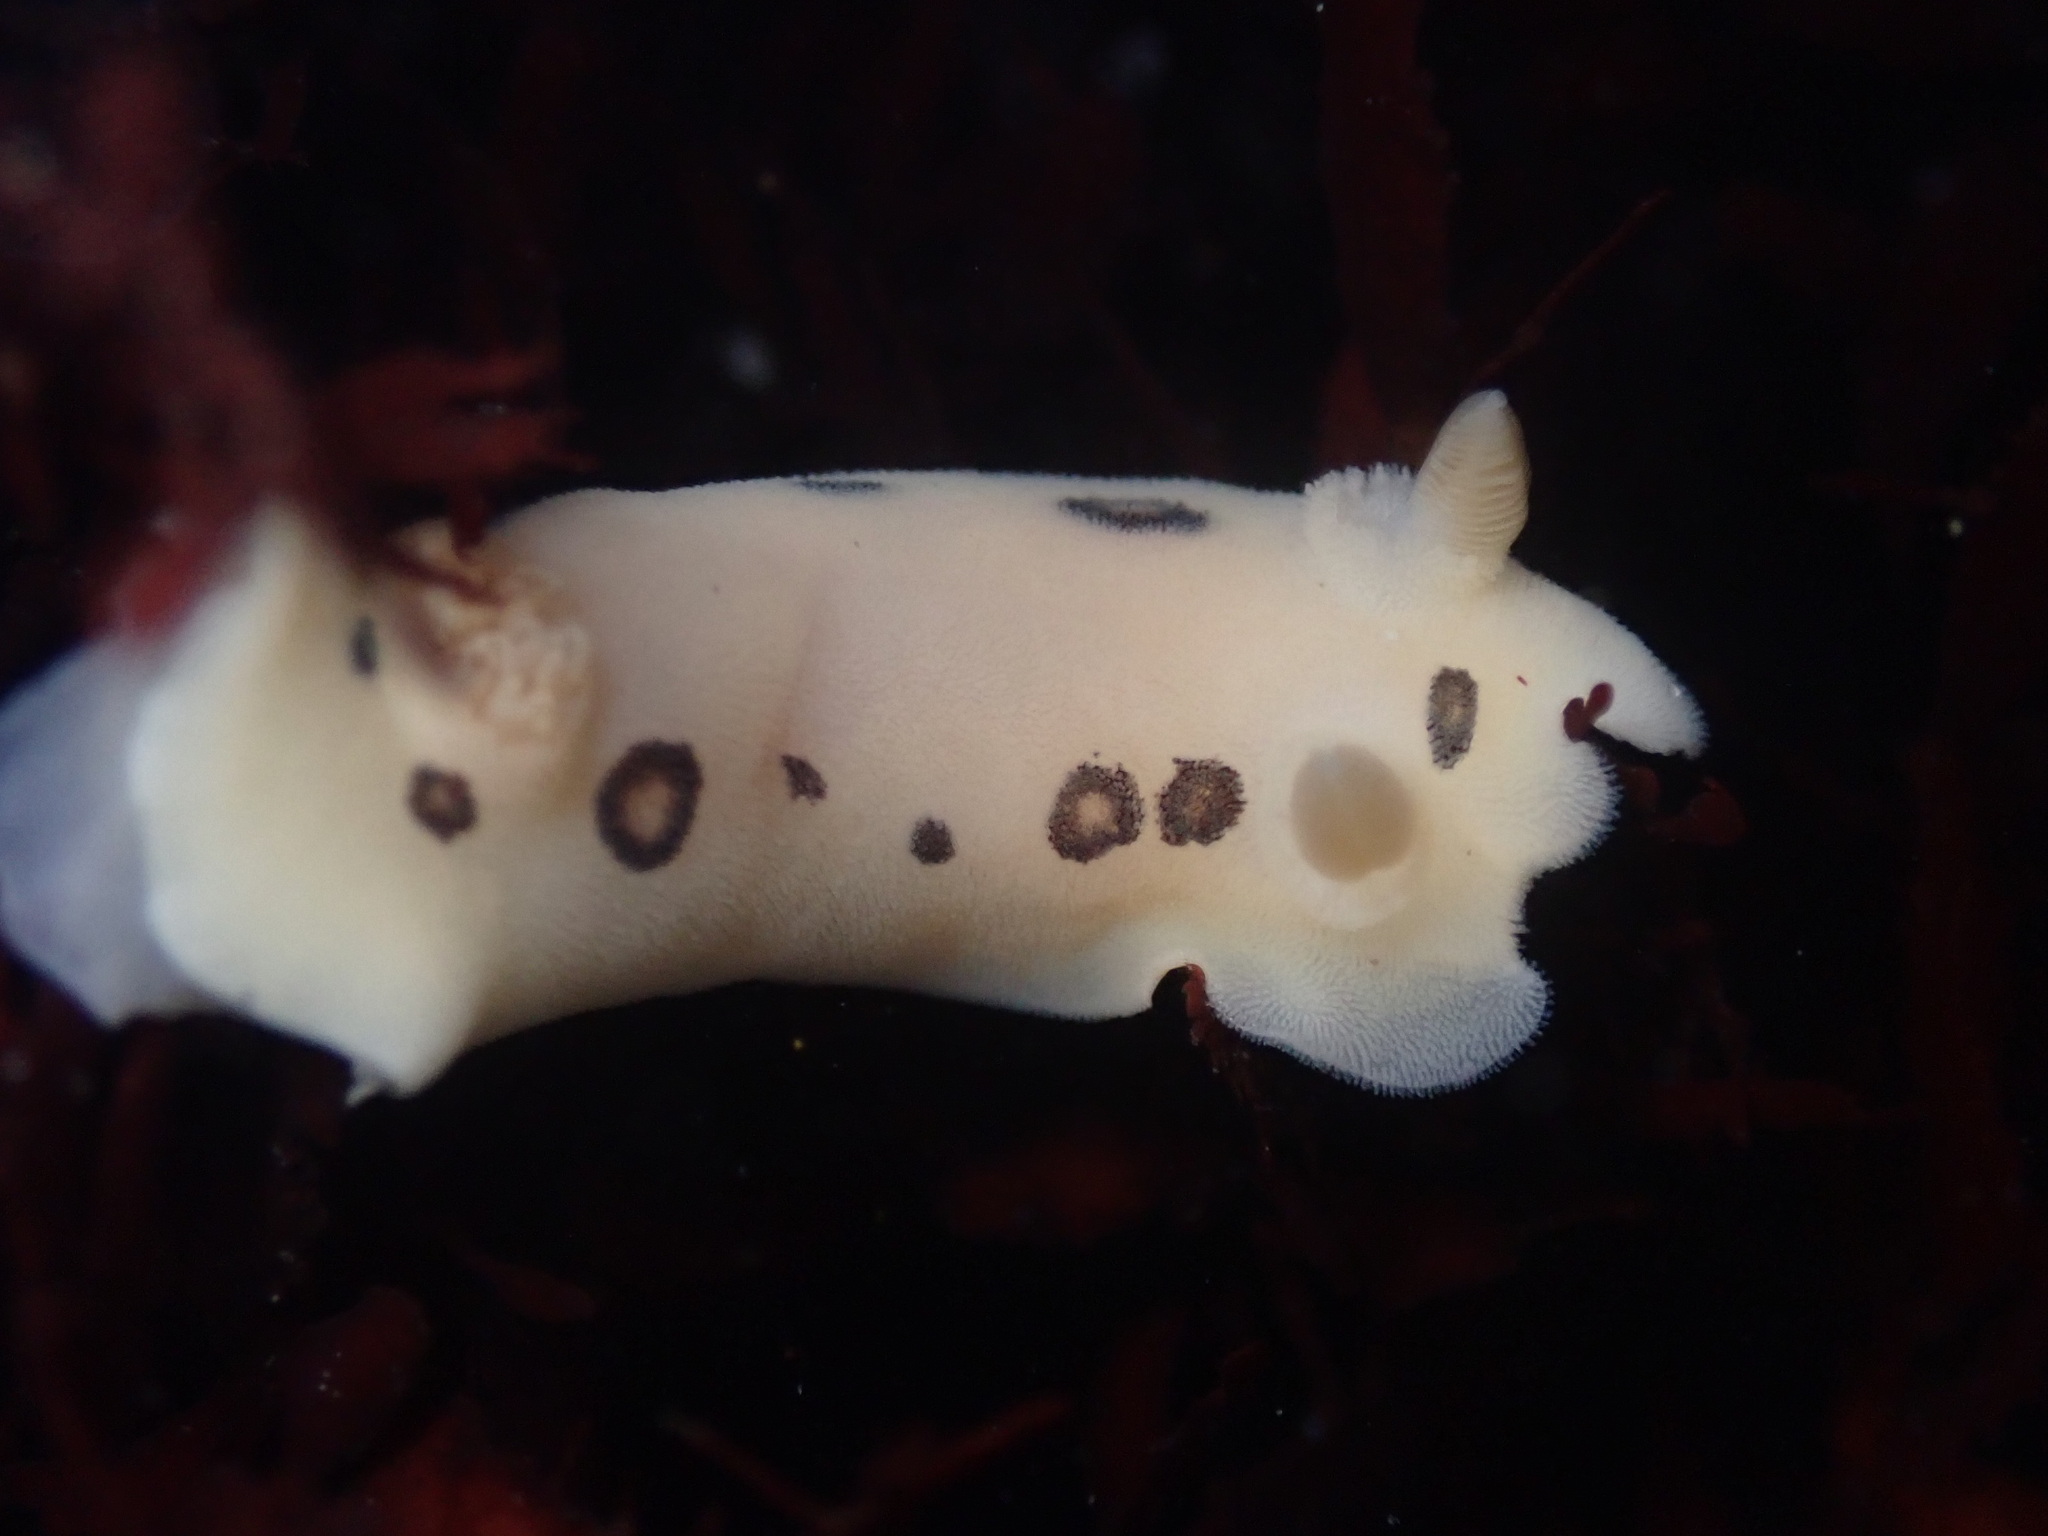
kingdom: Animalia
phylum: Mollusca
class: Gastropoda
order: Nudibranchia
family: Discodorididae
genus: Diaulula
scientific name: Diaulula sandiegensis
